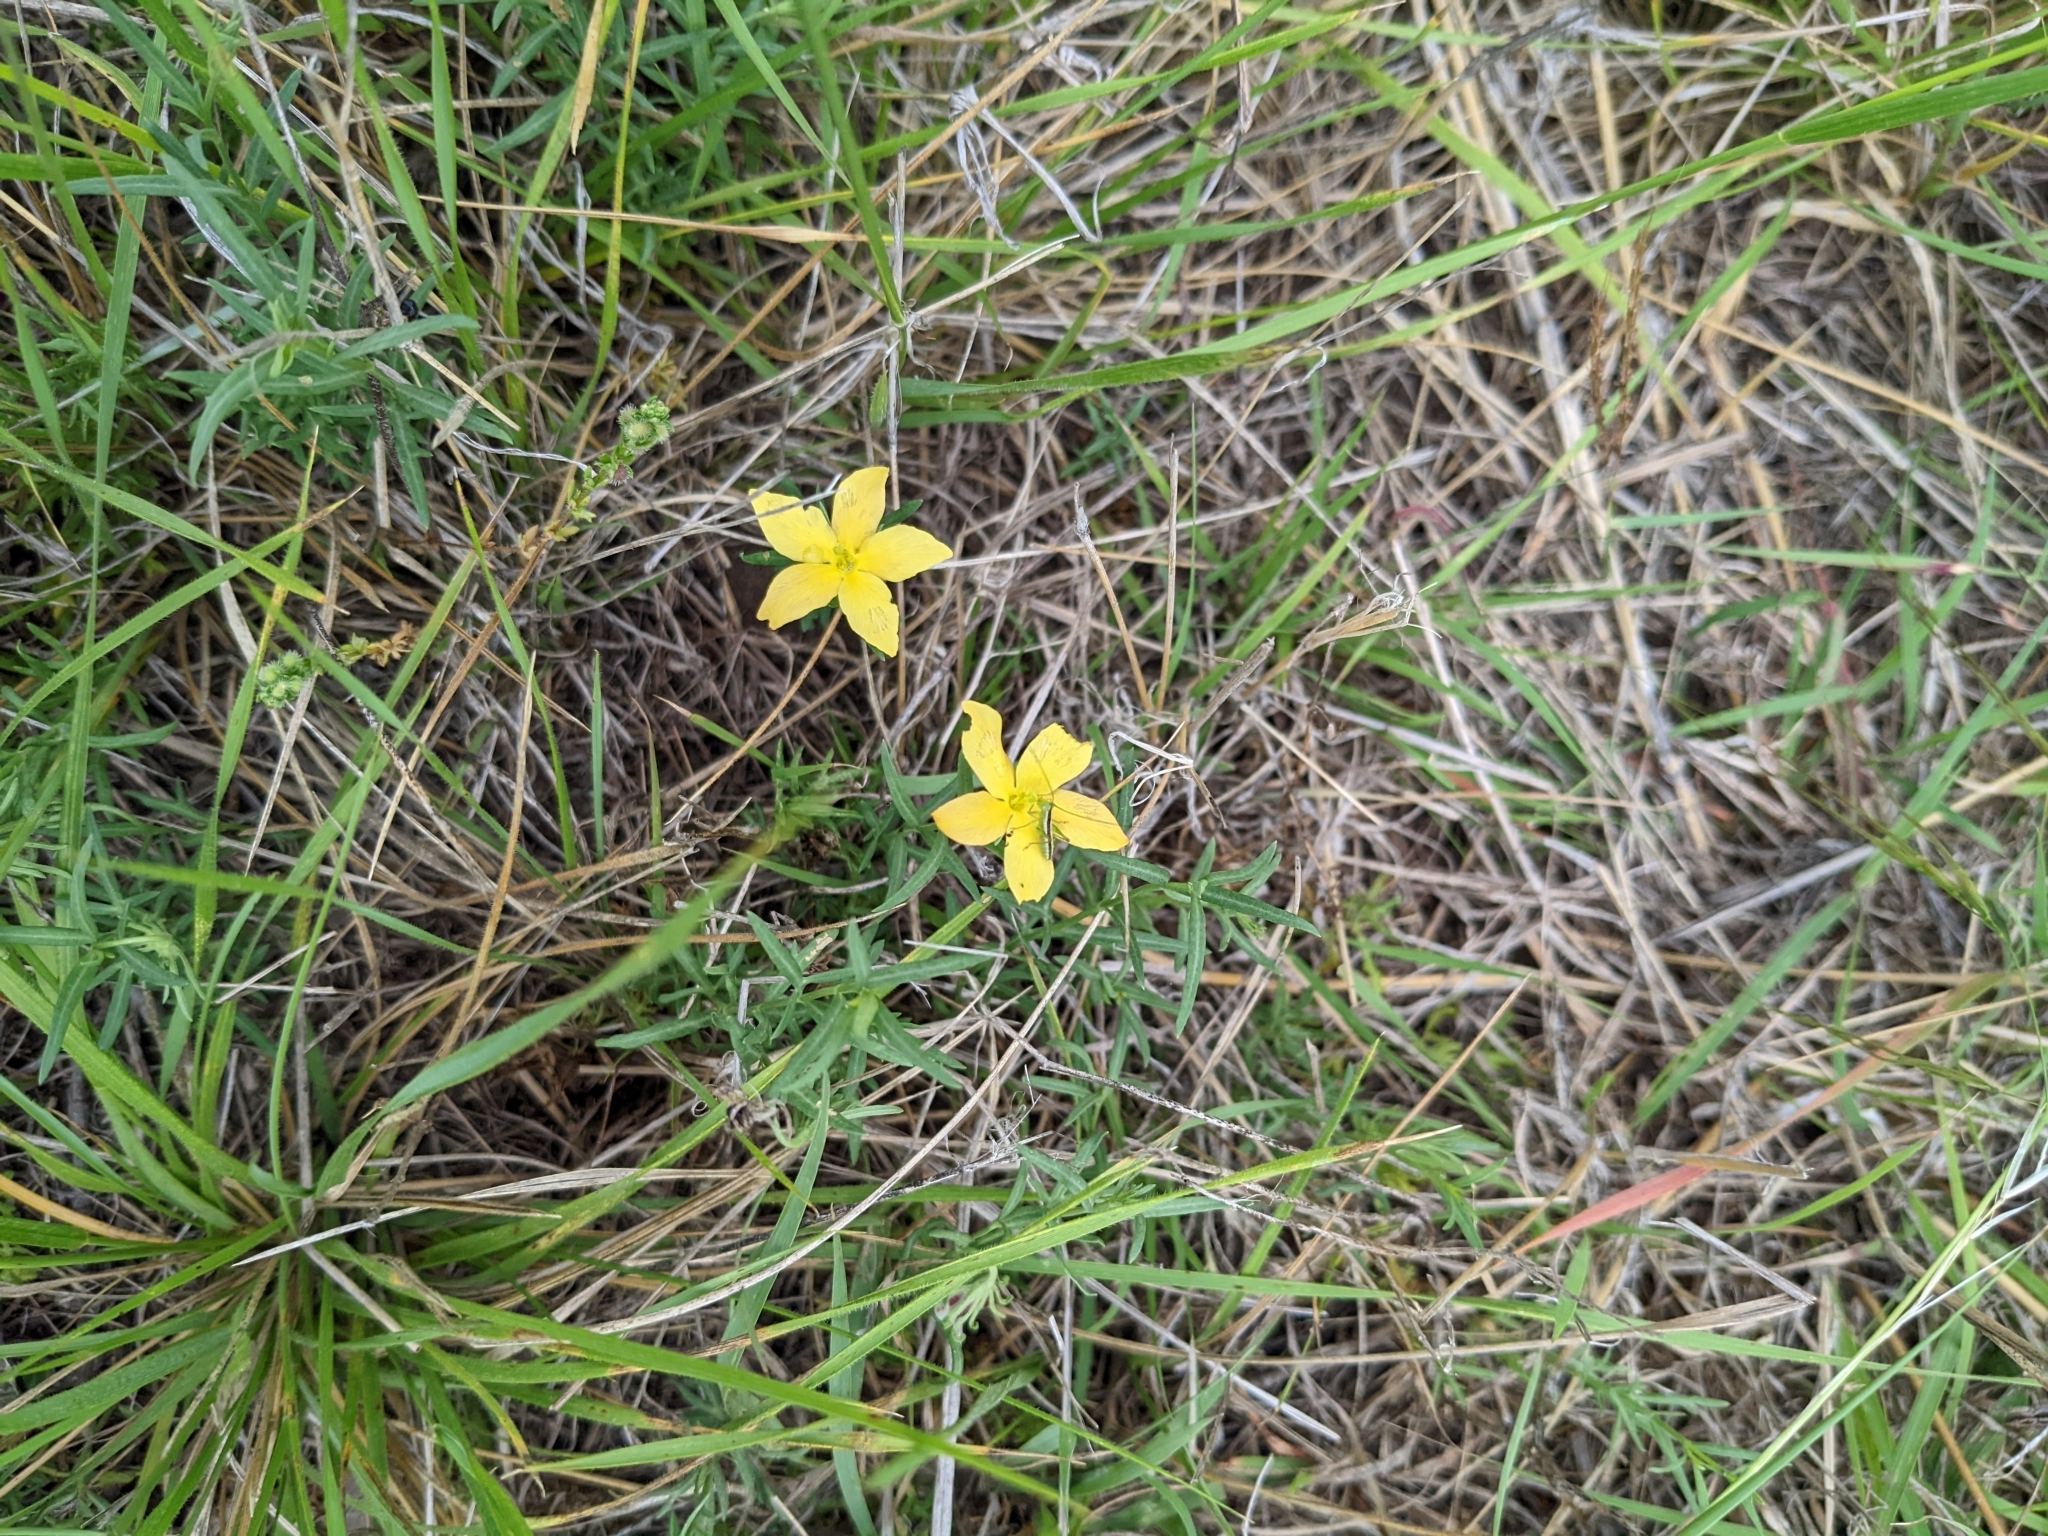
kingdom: Plantae
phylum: Tracheophyta
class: Magnoliopsida
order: Lamiales
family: Oleaceae
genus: Menodora
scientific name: Menodora heterophylla
